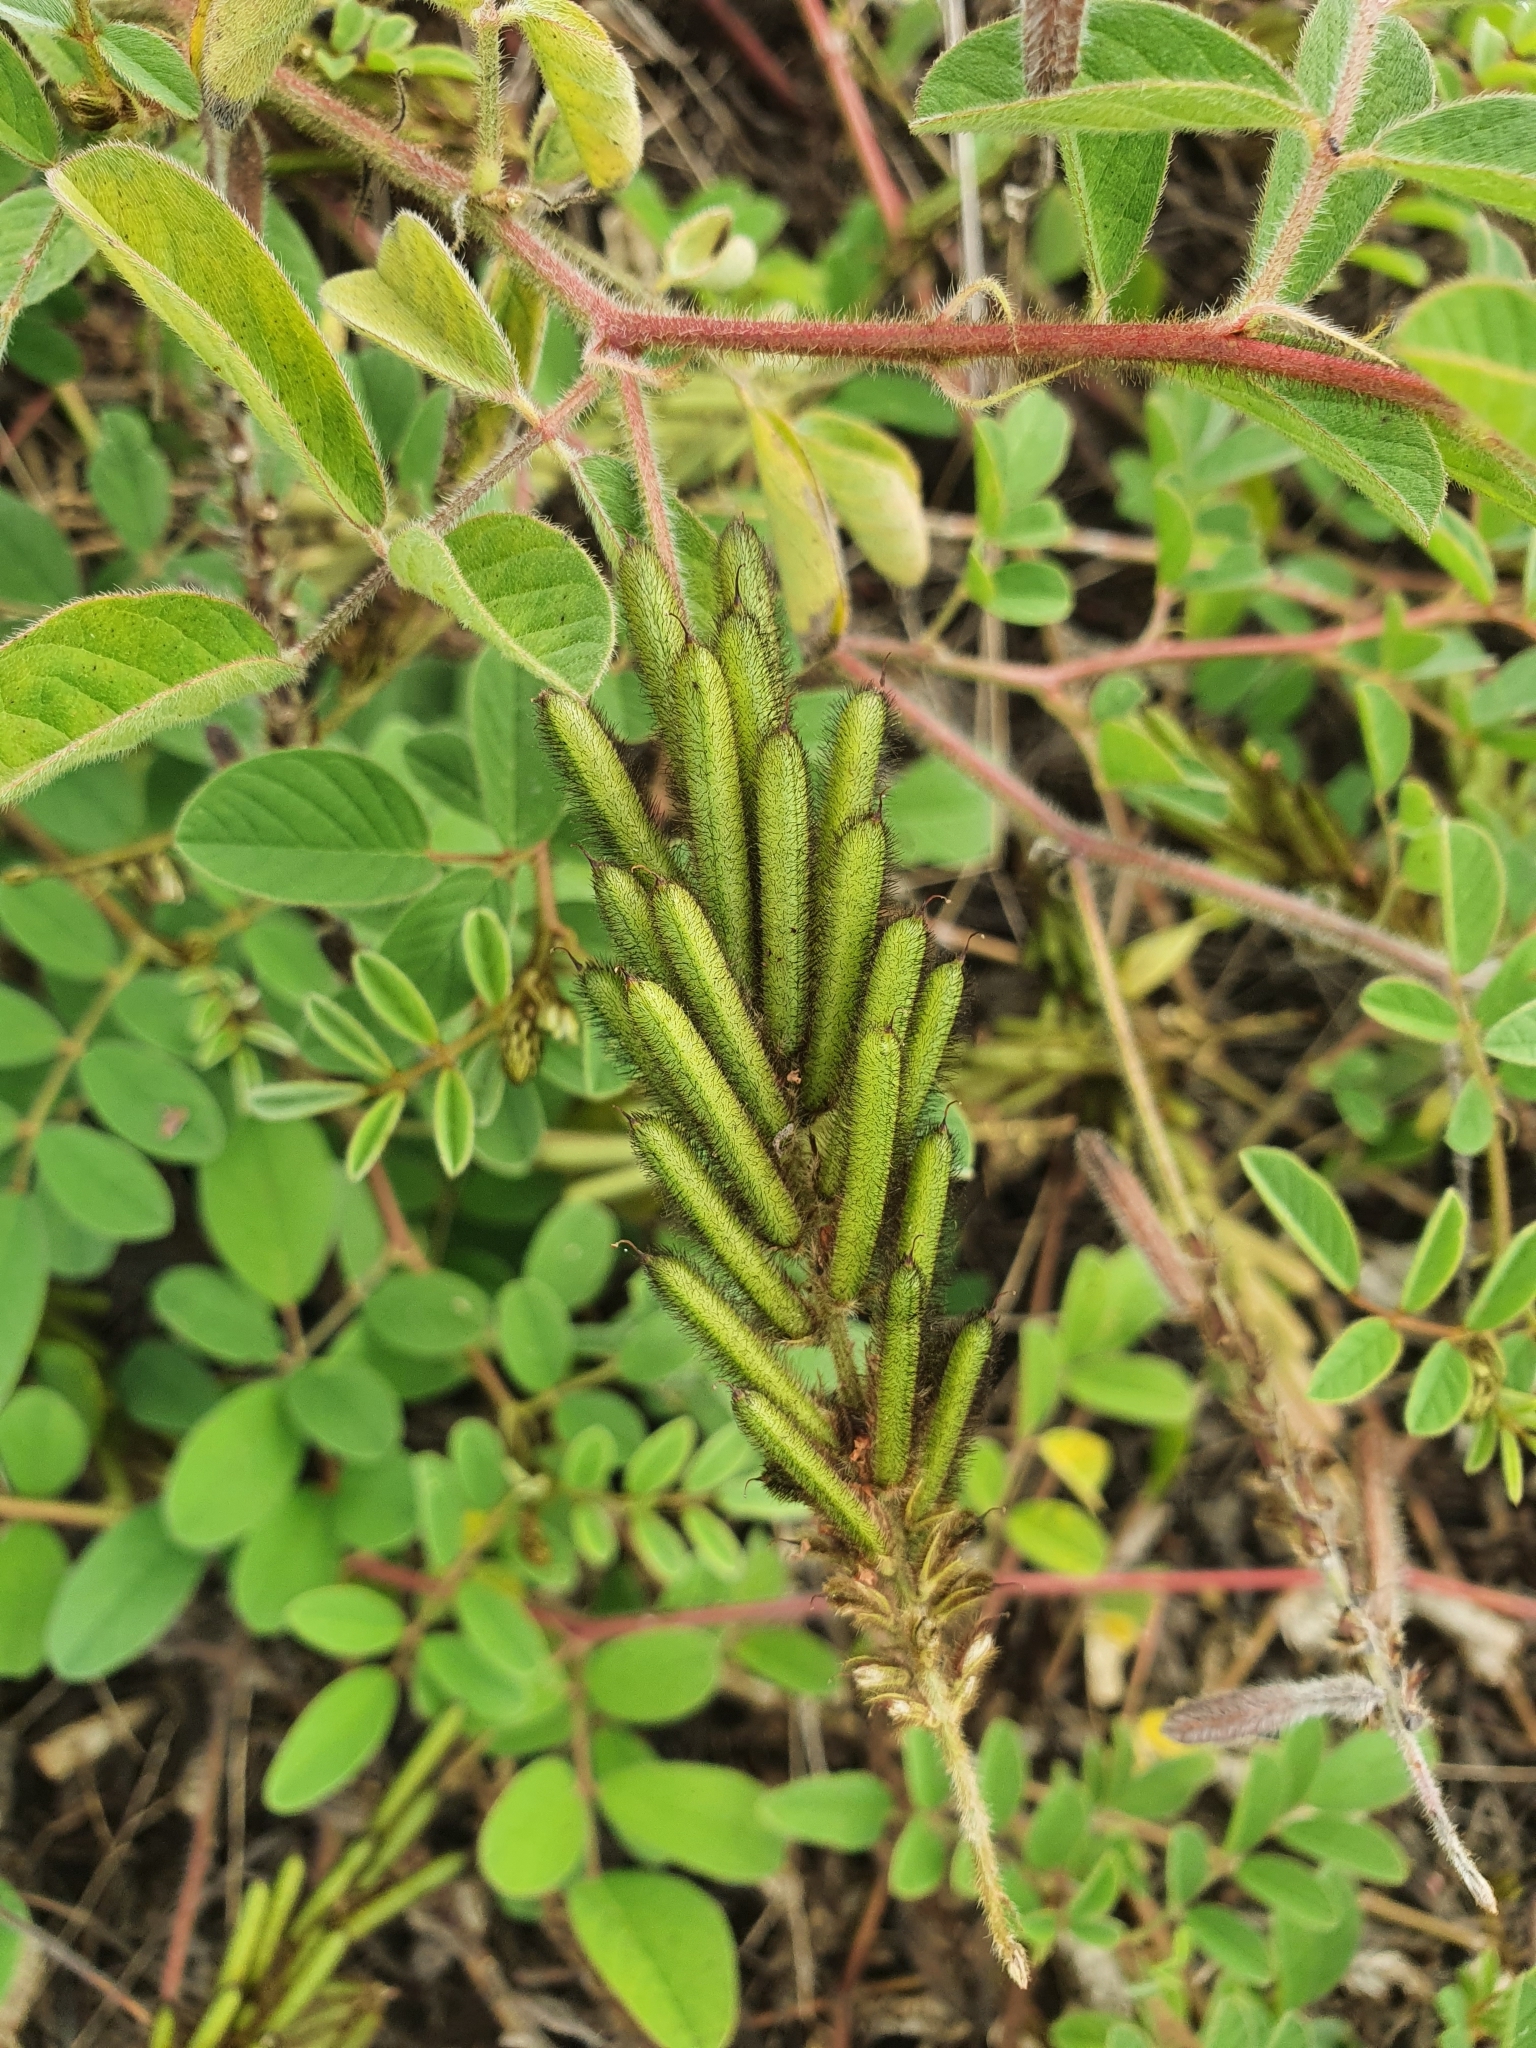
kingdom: Plantae
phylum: Tracheophyta
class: Magnoliopsida
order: Fabales
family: Fabaceae
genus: Indigofera
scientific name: Indigofera hirsuta
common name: Hairy indigo
